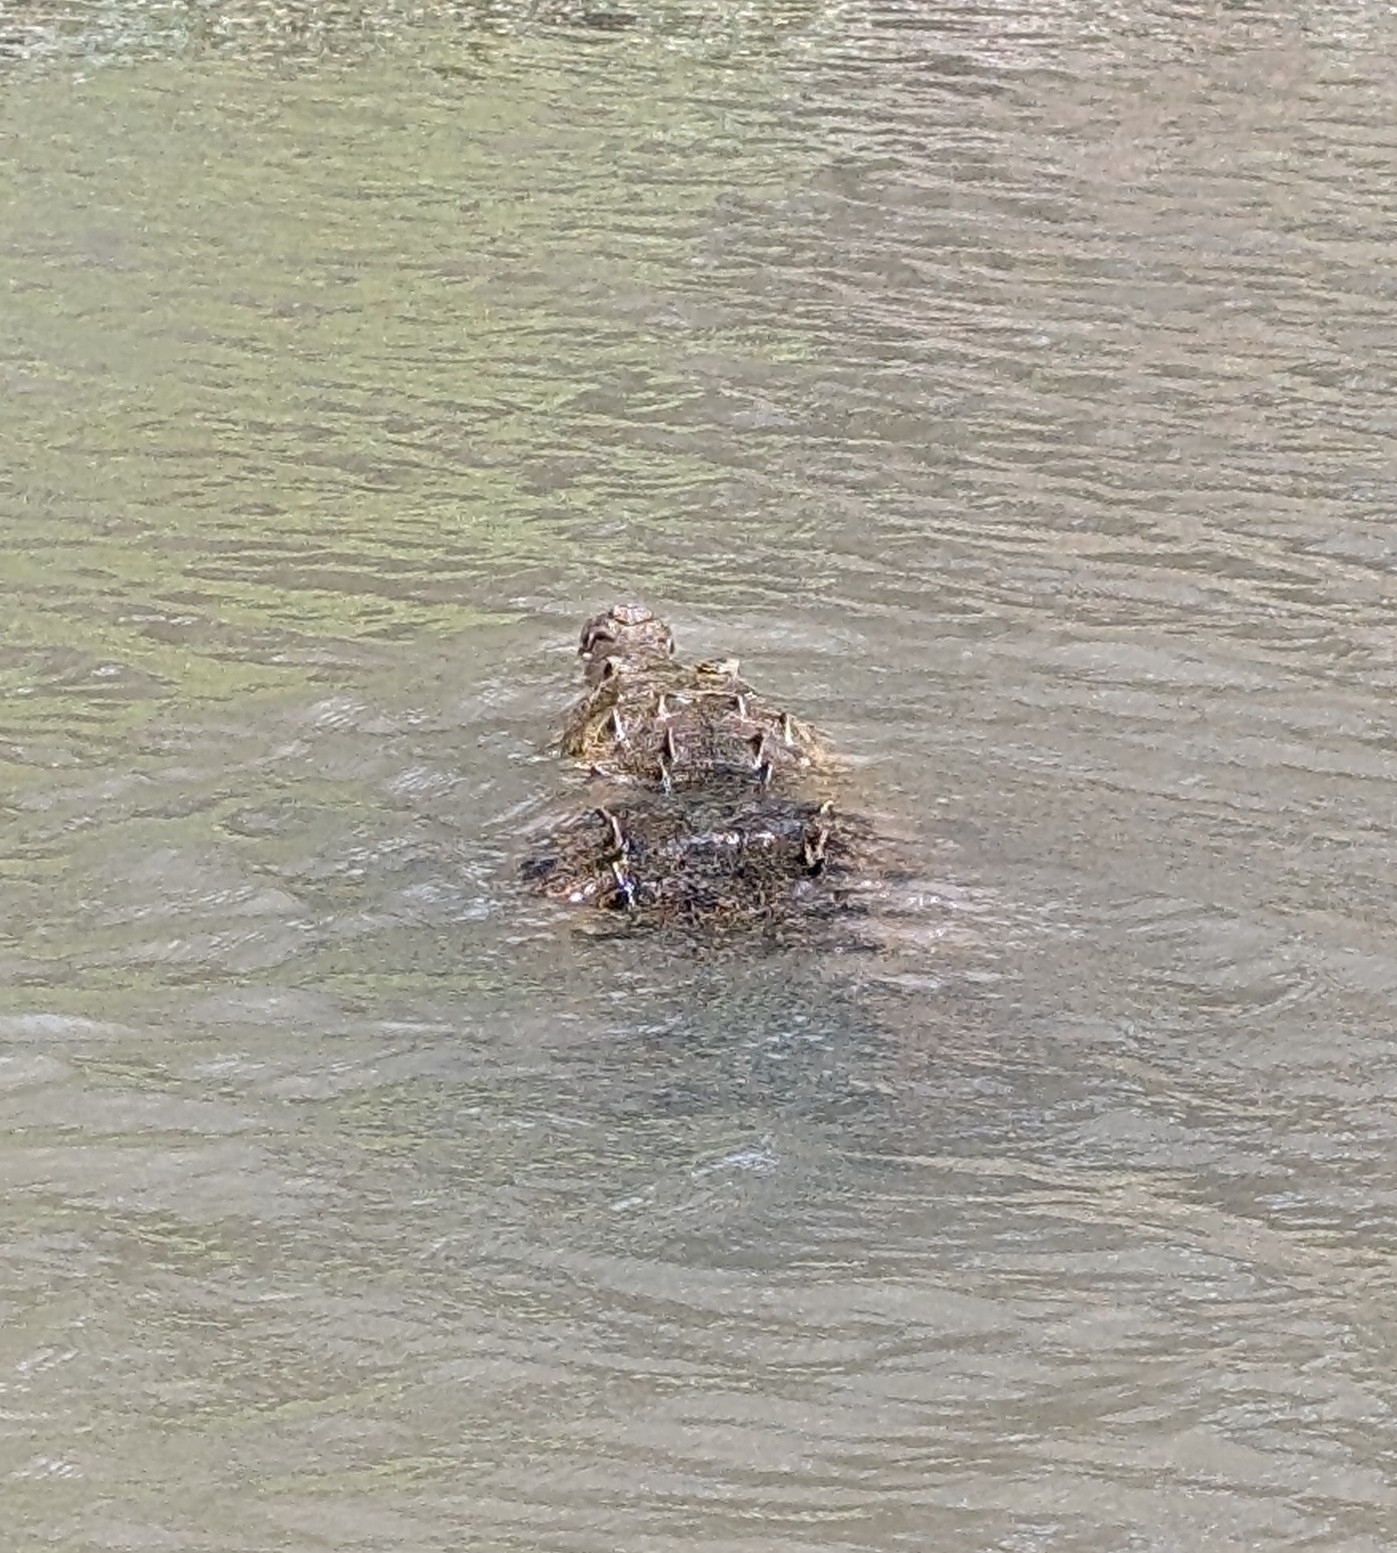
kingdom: Animalia
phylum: Chordata
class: Crocodylia
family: Crocodylidae
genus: Crocodylus
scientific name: Crocodylus acutus
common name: American crocodile
